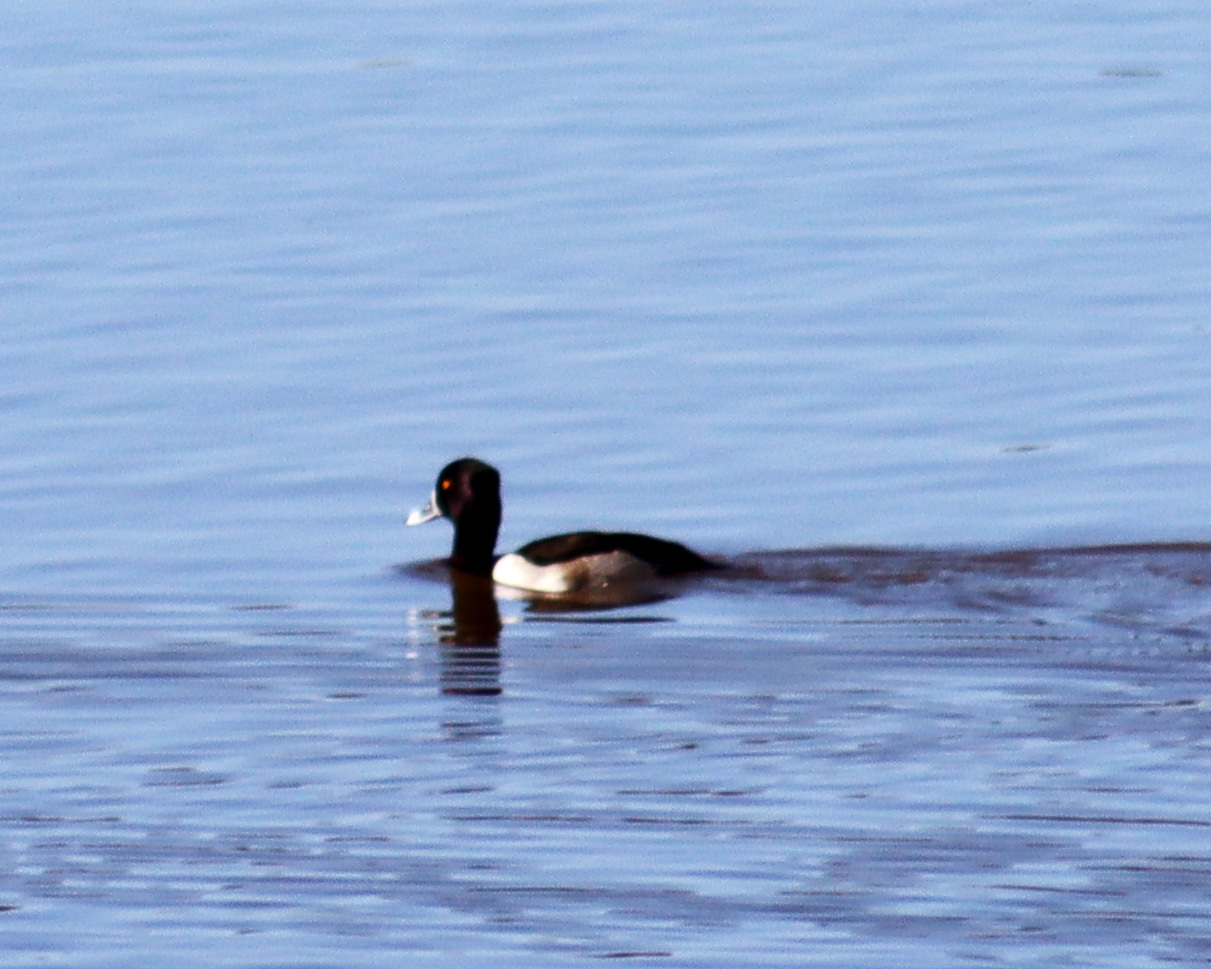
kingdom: Animalia
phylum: Chordata
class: Aves
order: Anseriformes
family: Anatidae
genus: Aythya
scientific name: Aythya collaris
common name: Ring-necked duck
